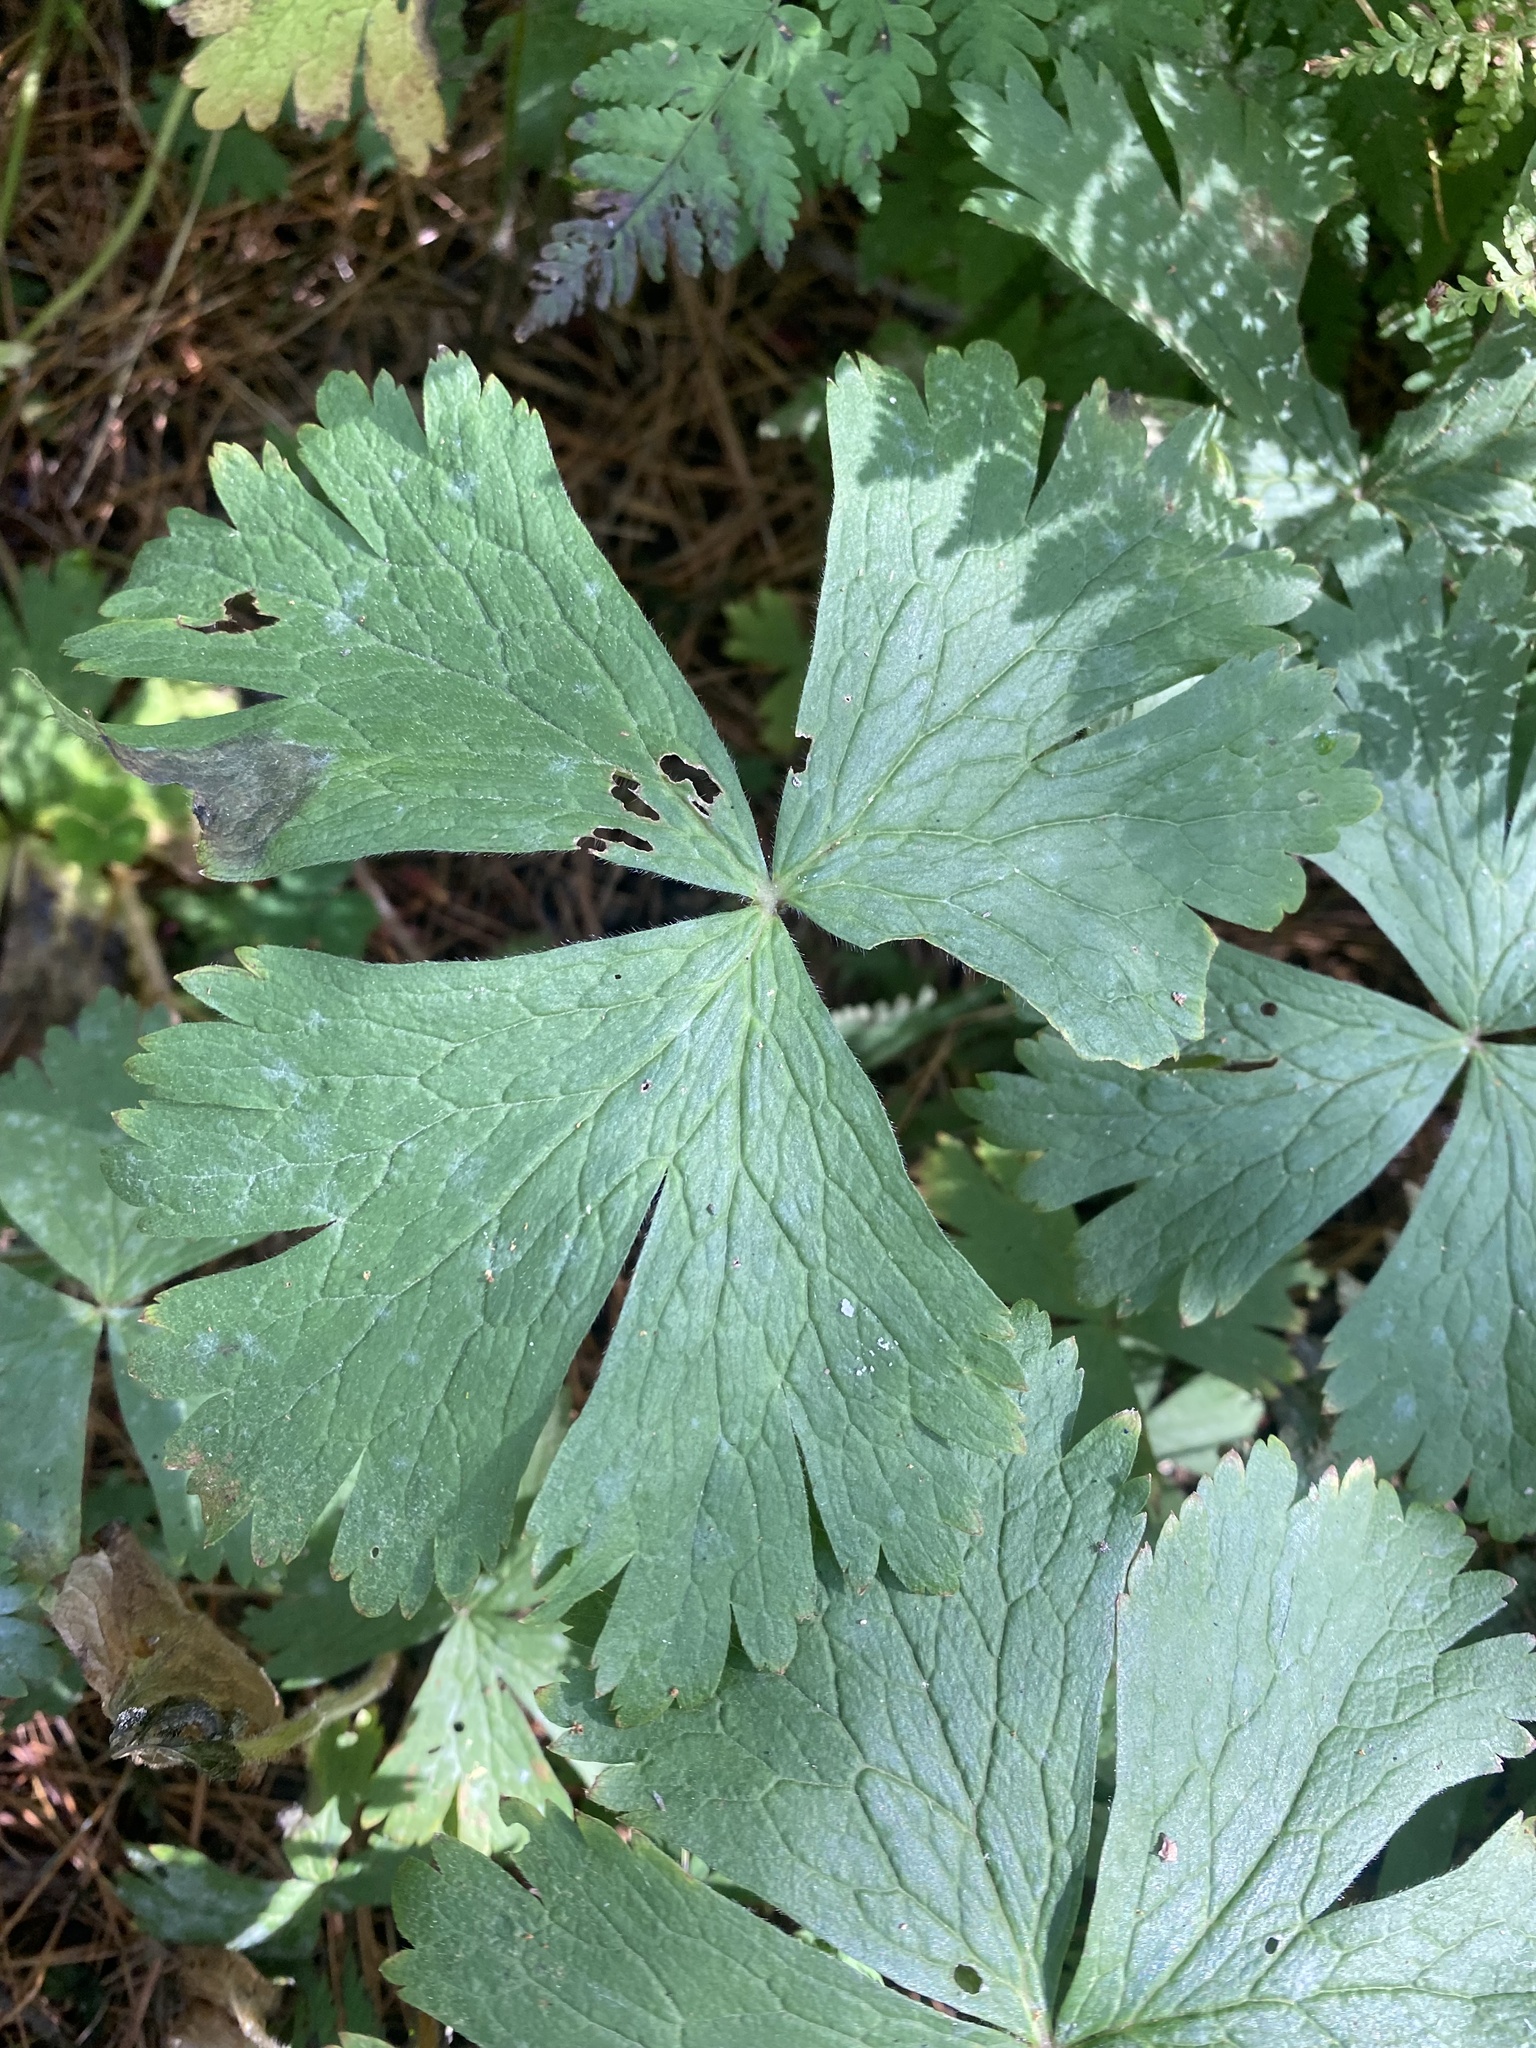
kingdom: Plantae
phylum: Tracheophyta
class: Magnoliopsida
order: Ranunculales
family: Ranunculaceae
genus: Anemonastrum
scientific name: Anemonastrum baicalense
